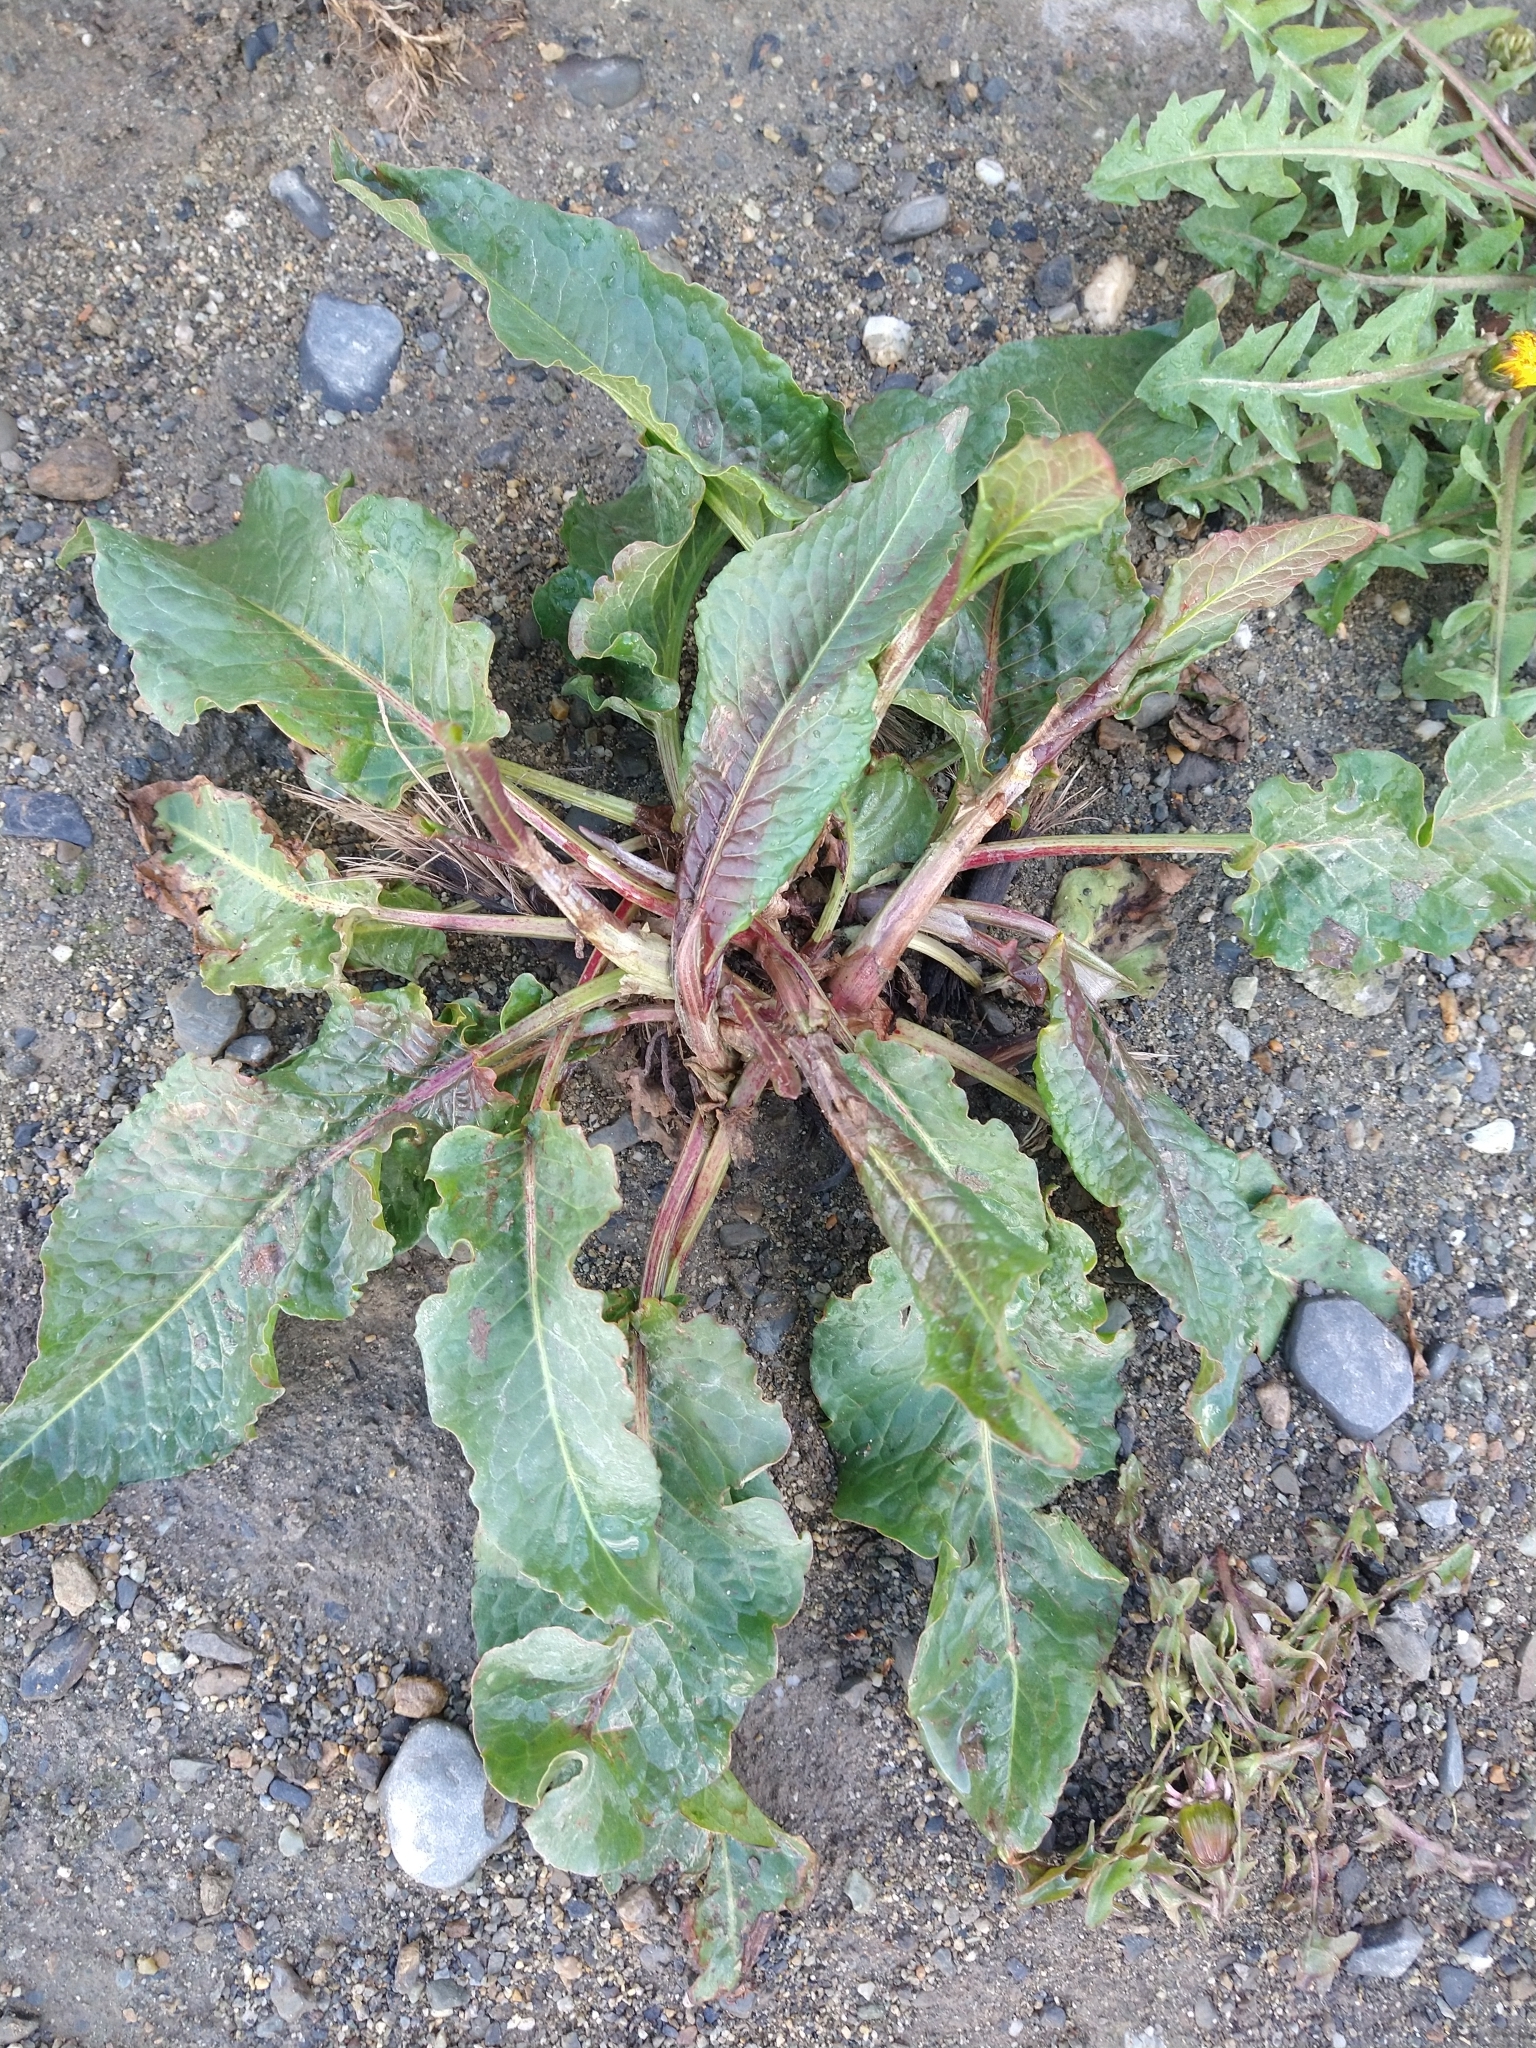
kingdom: Plantae
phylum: Tracheophyta
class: Magnoliopsida
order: Caryophyllales
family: Polygonaceae
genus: Rumex
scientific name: Rumex crispus
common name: Curled dock
